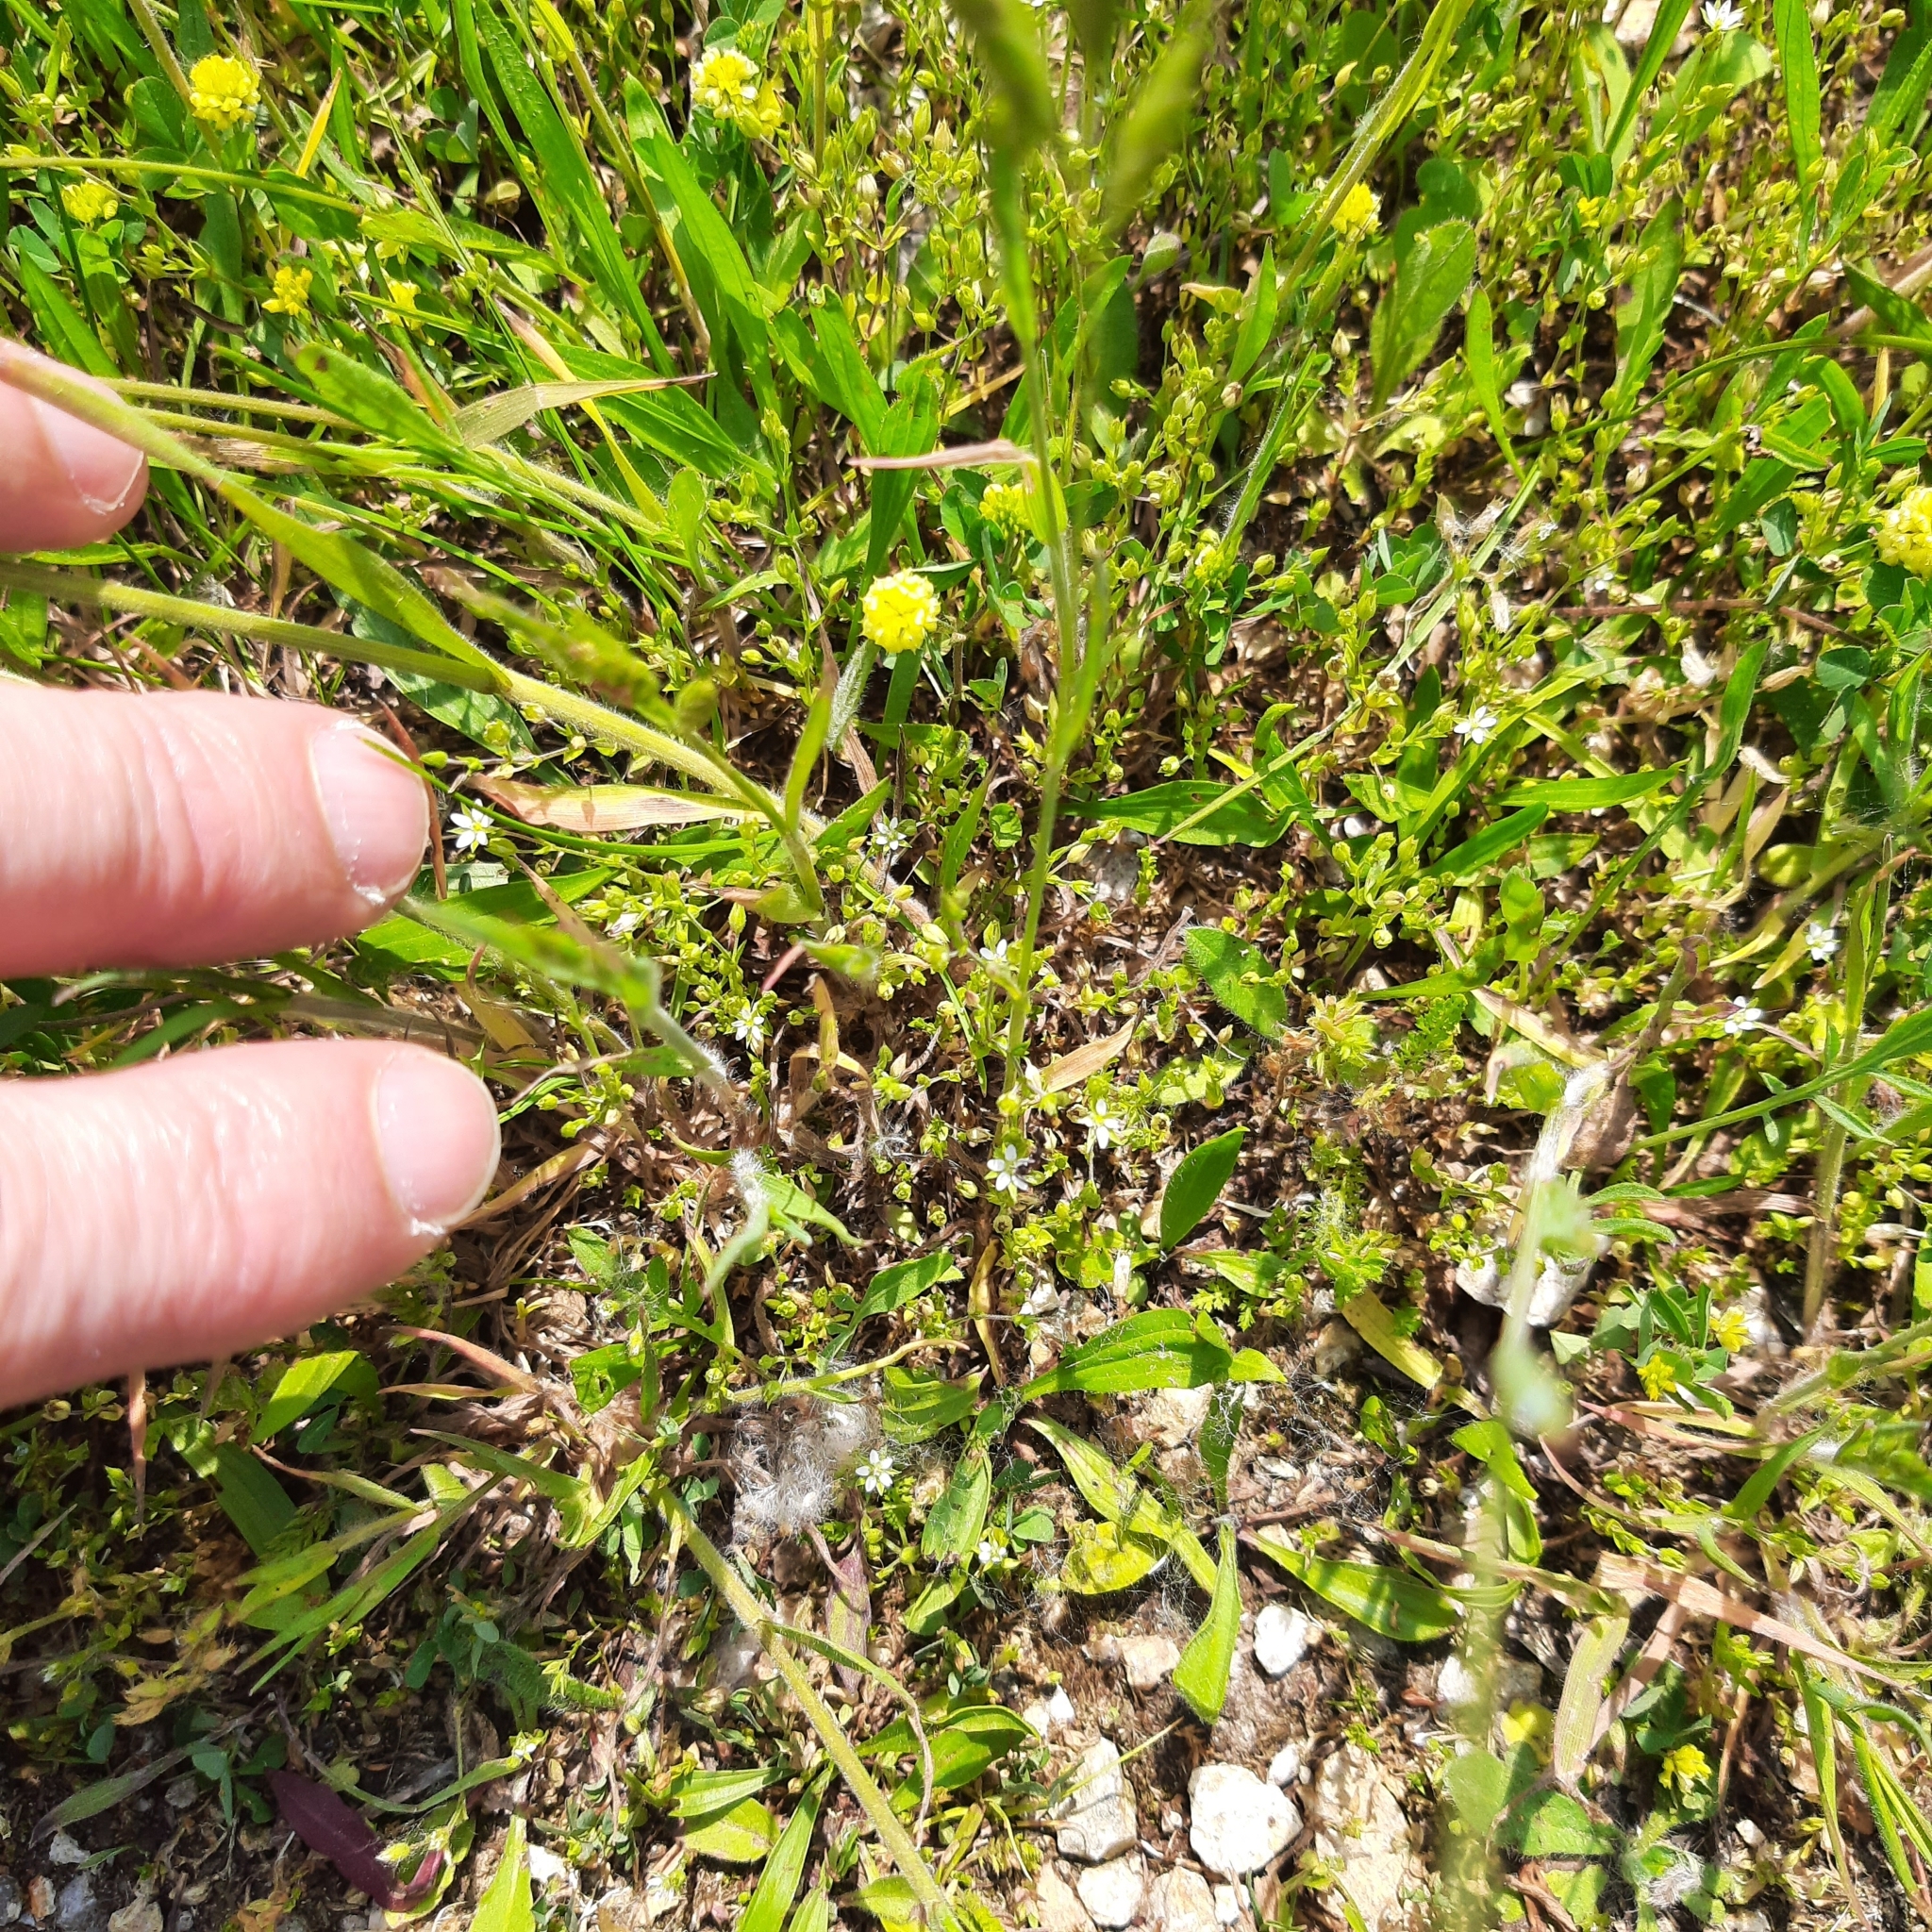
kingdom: Plantae
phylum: Tracheophyta
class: Magnoliopsida
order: Fabales
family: Fabaceae
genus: Trifolium
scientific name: Trifolium campestre
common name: Field clover
